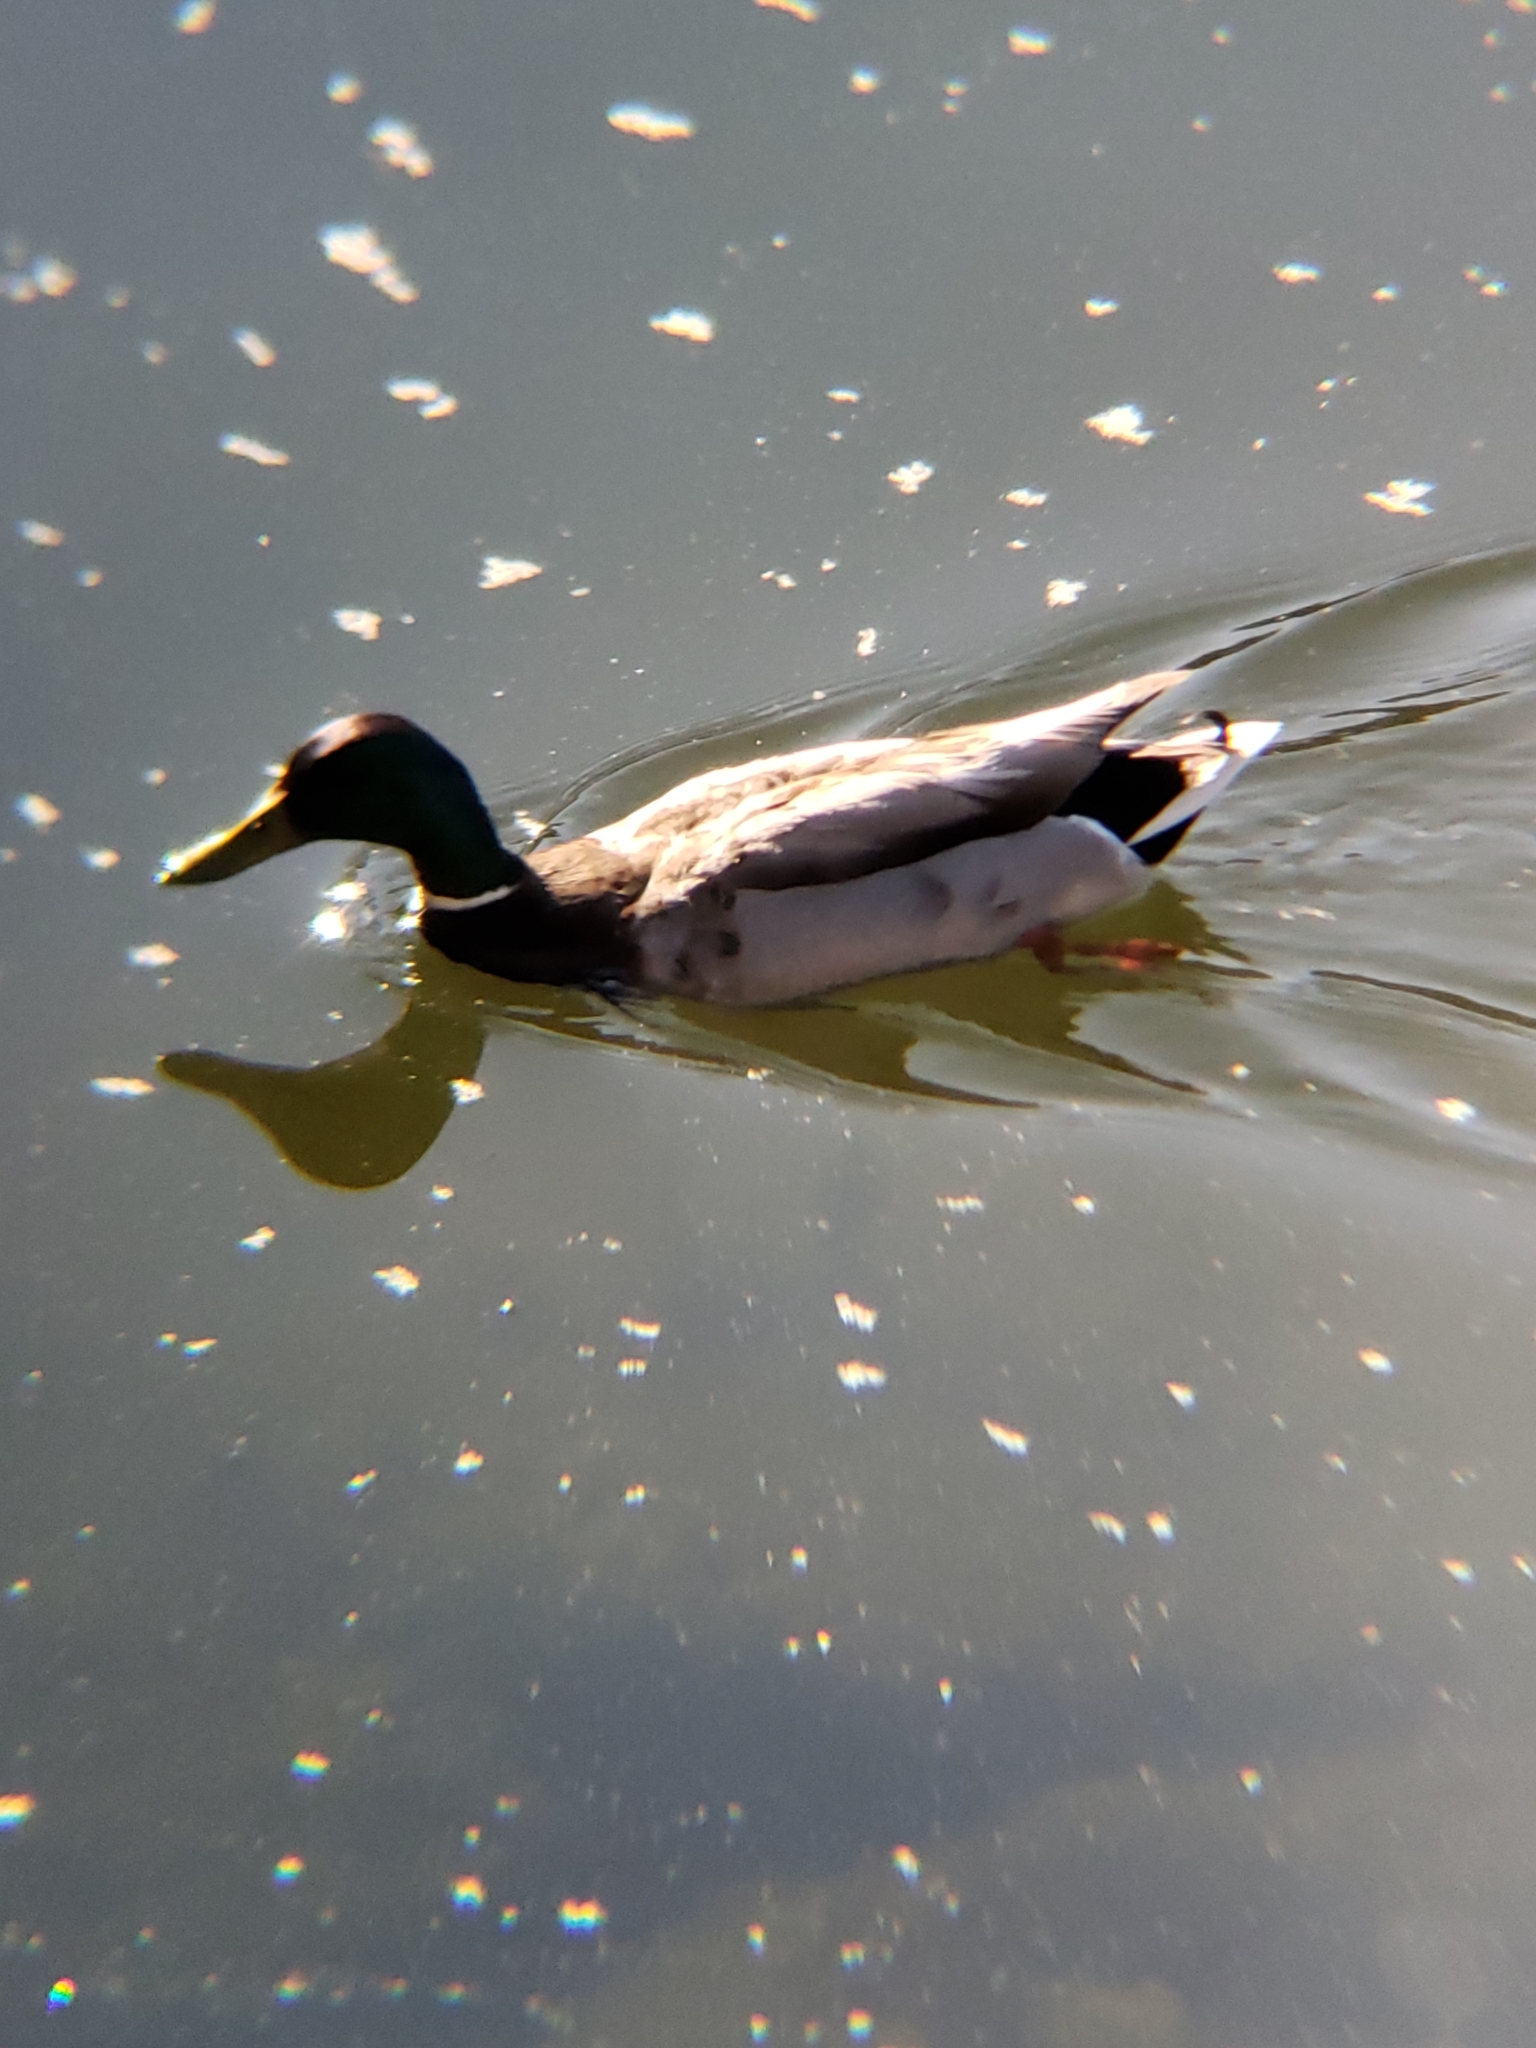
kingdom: Animalia
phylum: Chordata
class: Aves
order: Anseriformes
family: Anatidae
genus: Anas
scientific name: Anas platyrhynchos
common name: Mallard
